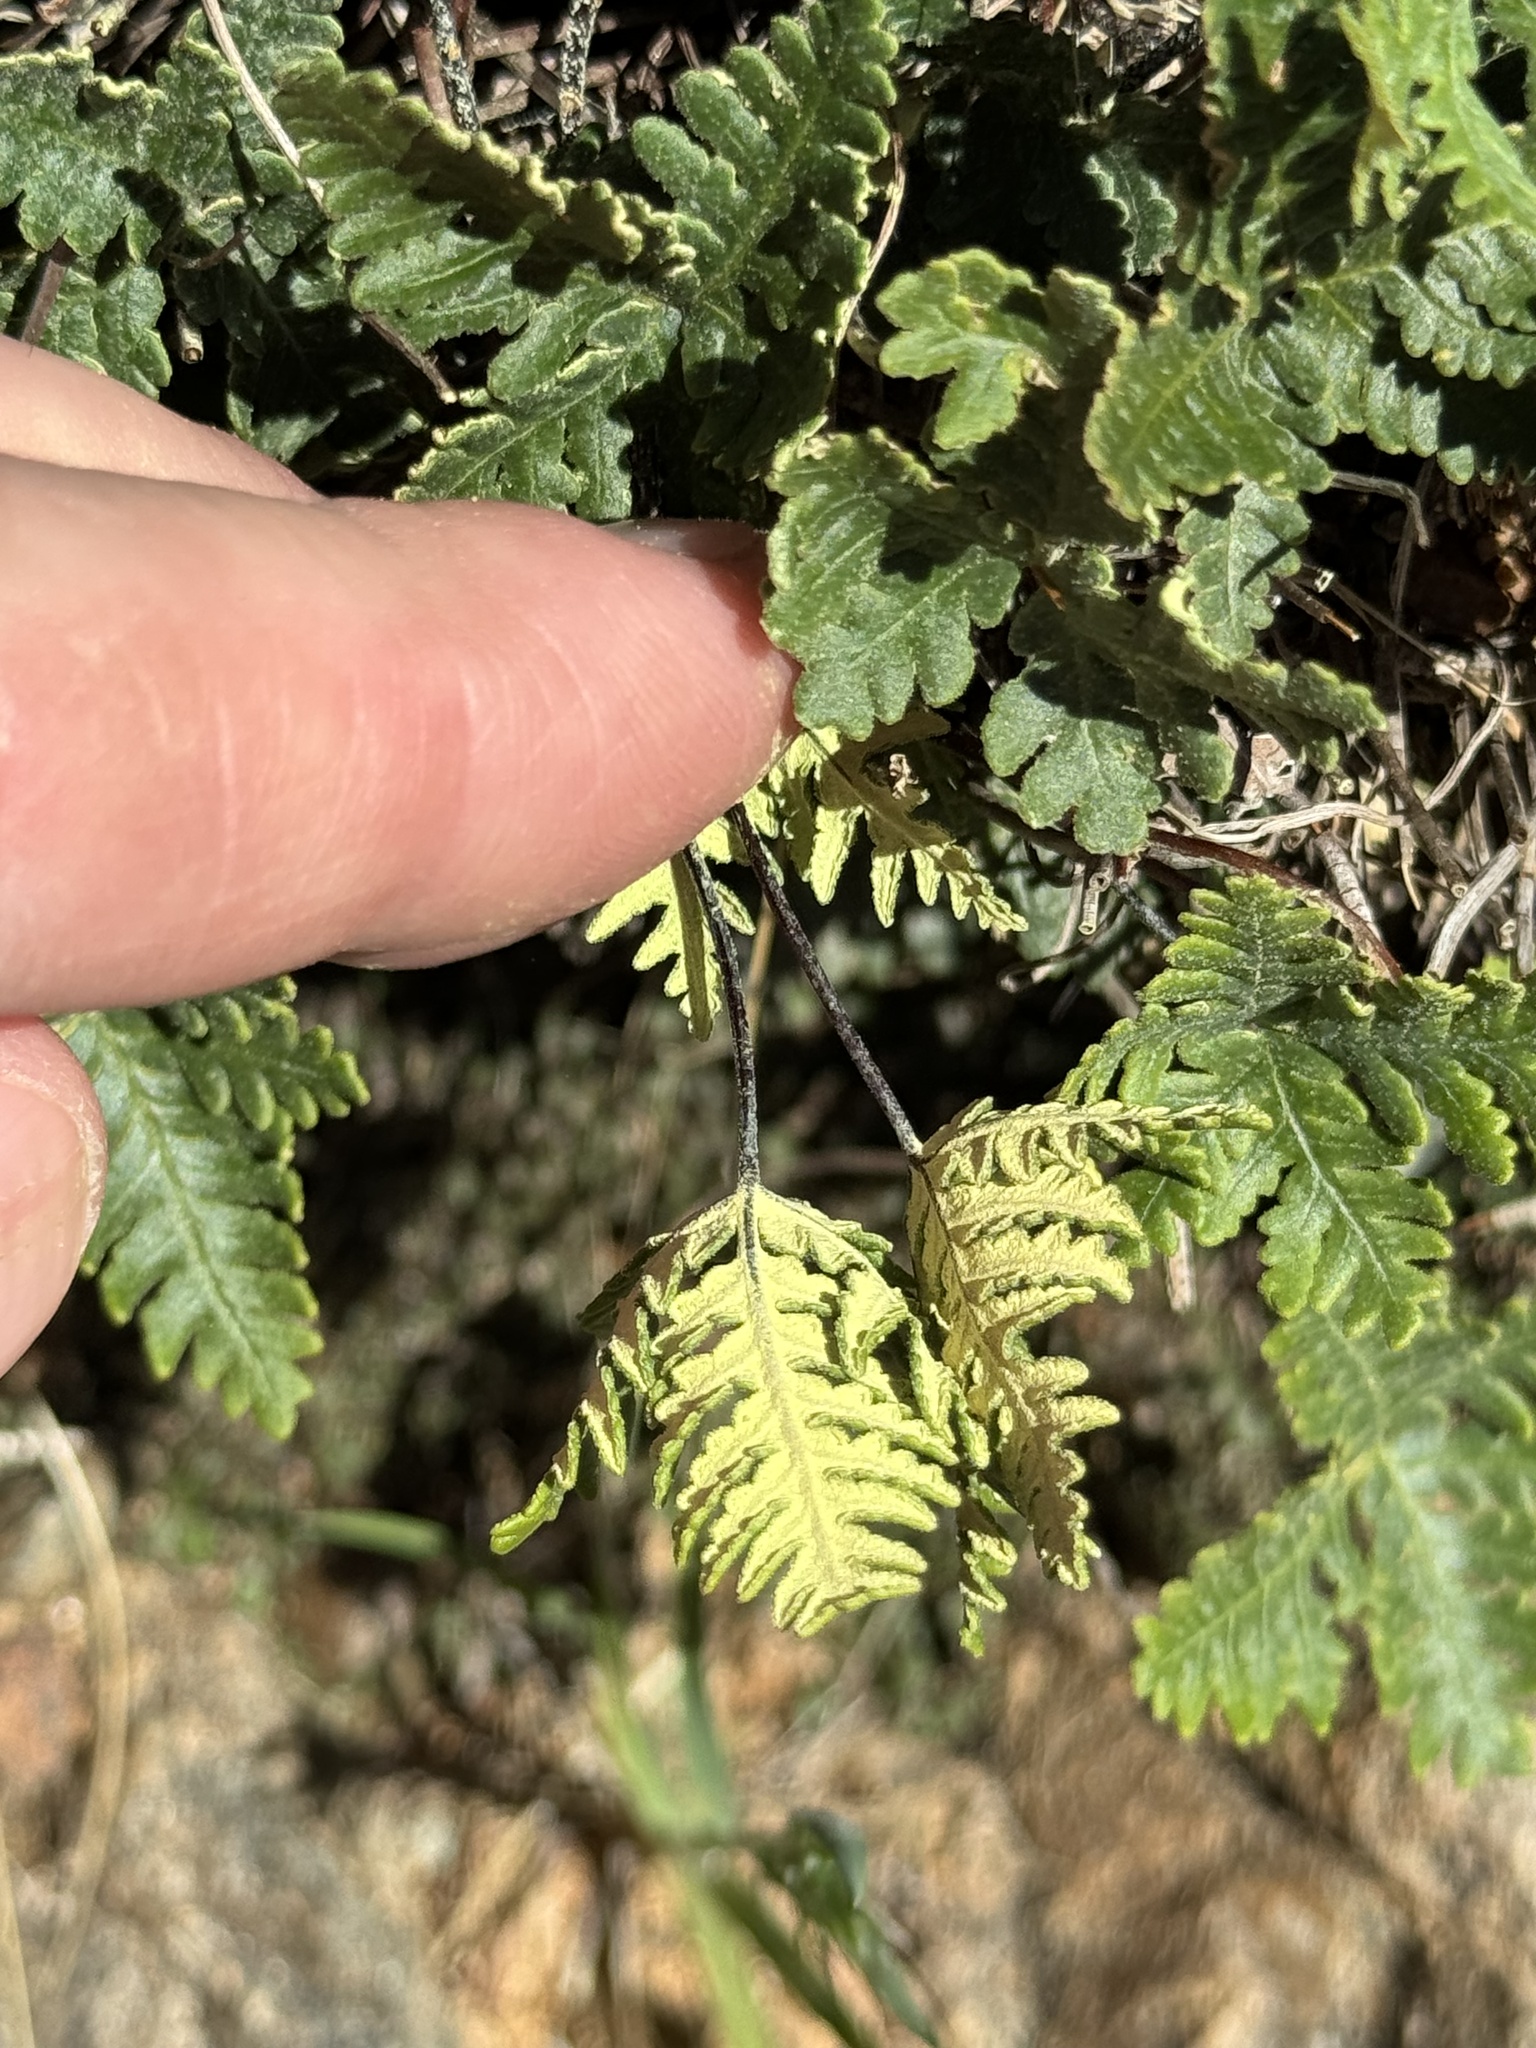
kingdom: Plantae
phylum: Tracheophyta
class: Polypodiopsida
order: Polypodiales
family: Pteridaceae
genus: Notholaena
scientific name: Notholaena standleyi
